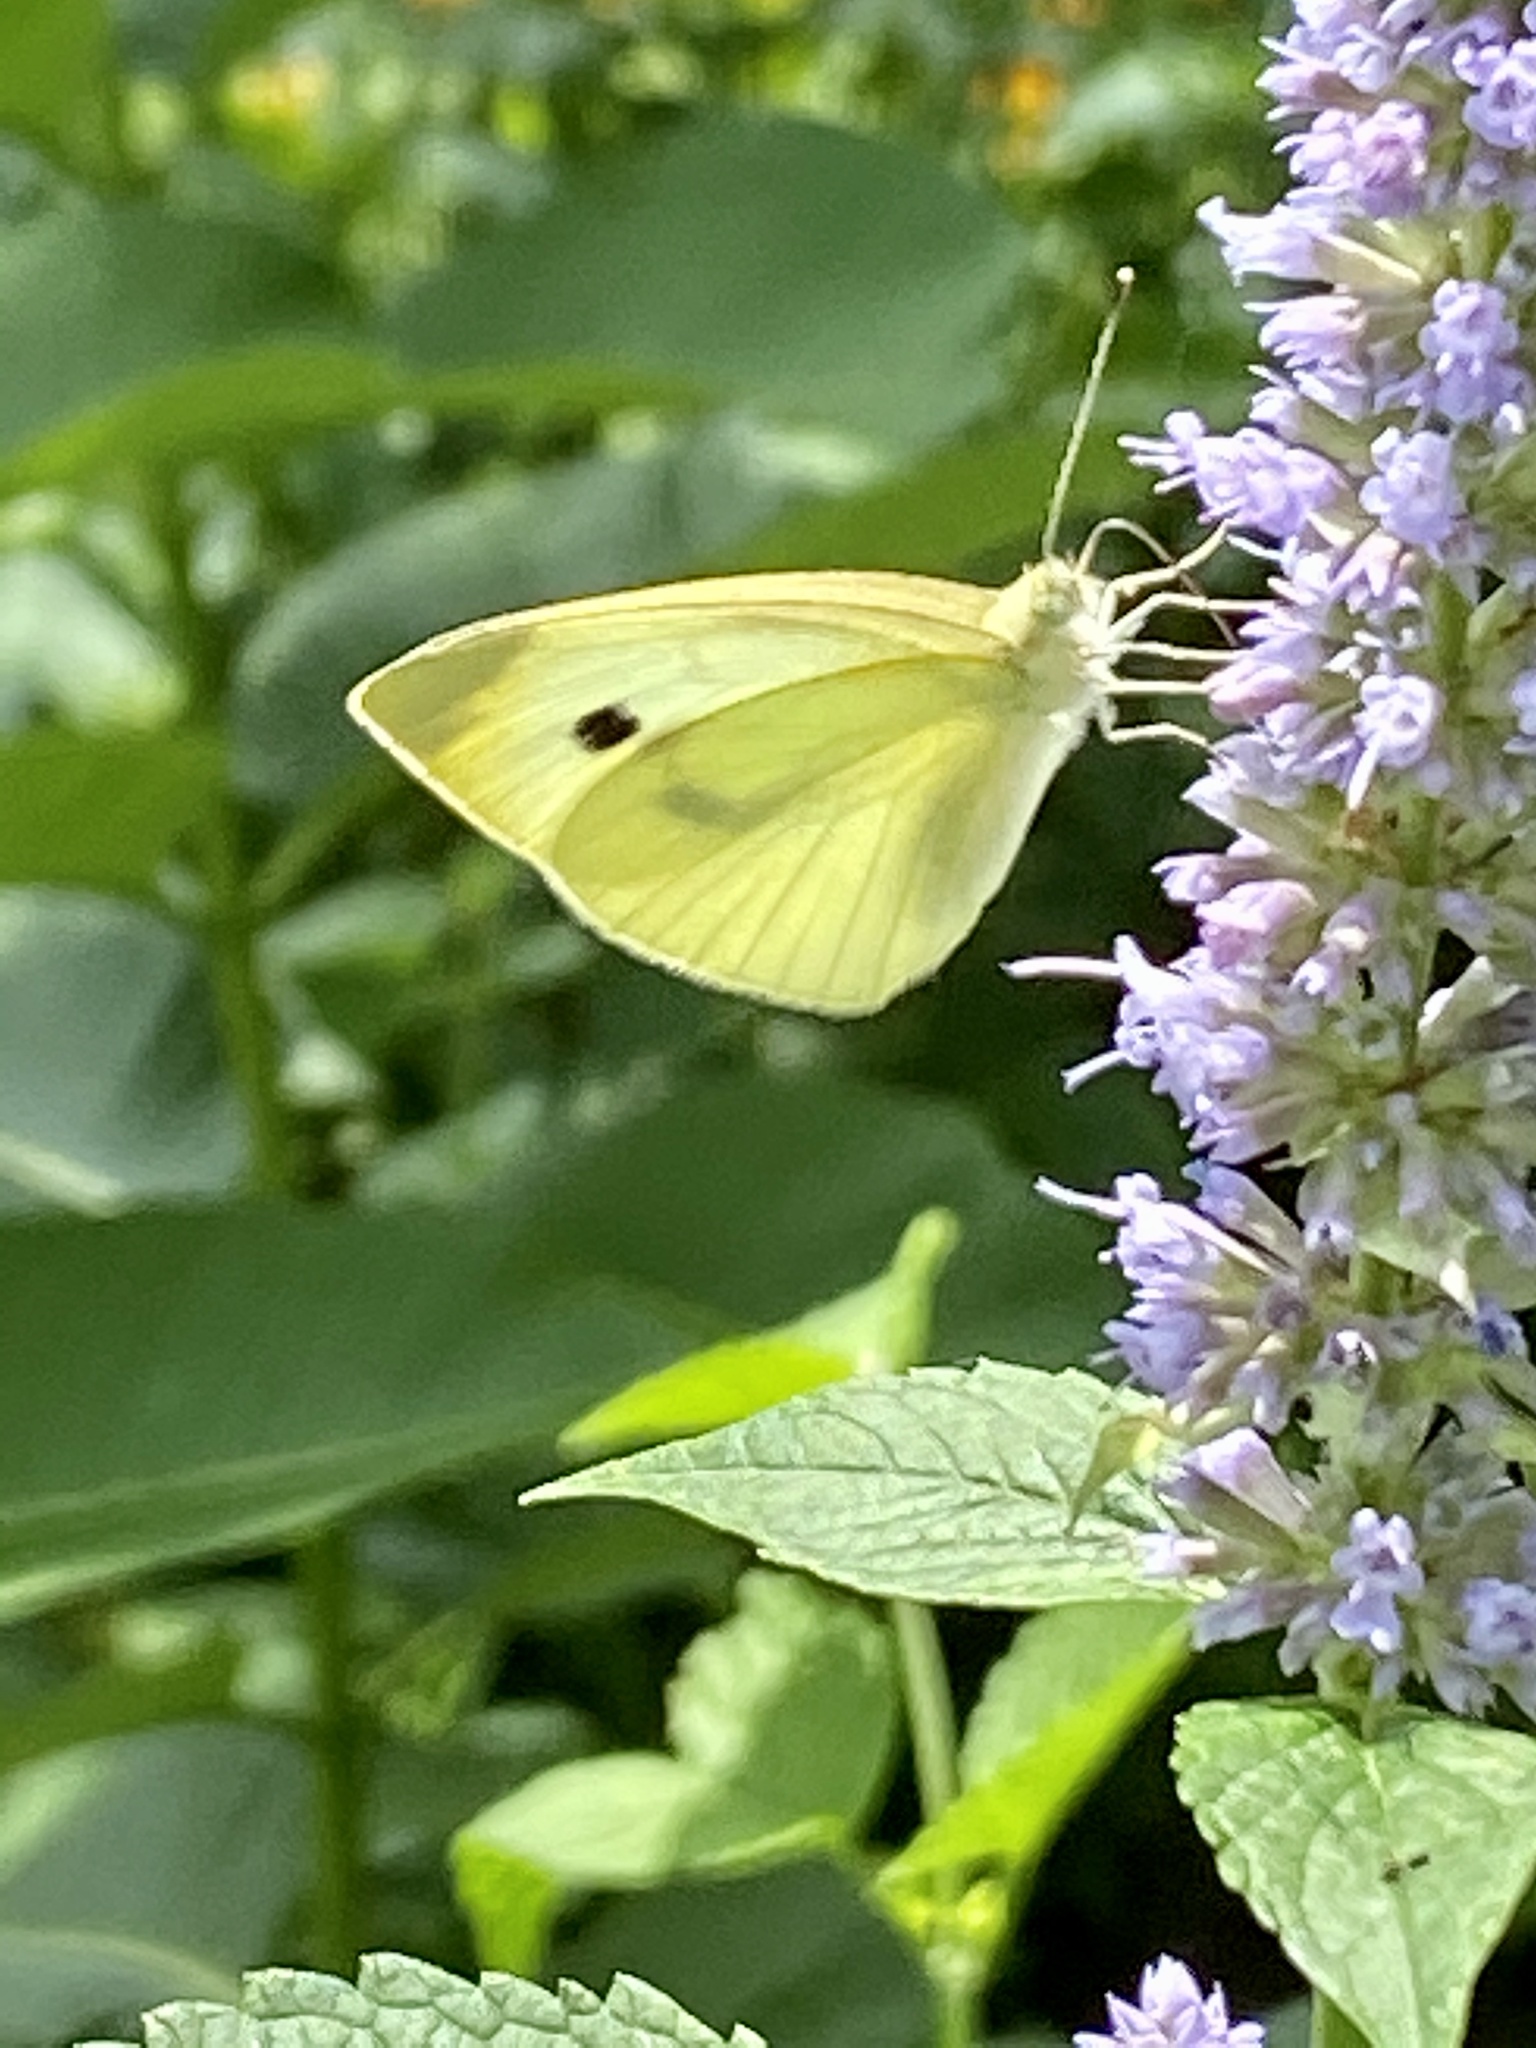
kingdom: Animalia
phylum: Arthropoda
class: Insecta
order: Lepidoptera
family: Pieridae
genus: Pieris
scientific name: Pieris rapae
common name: Small white
